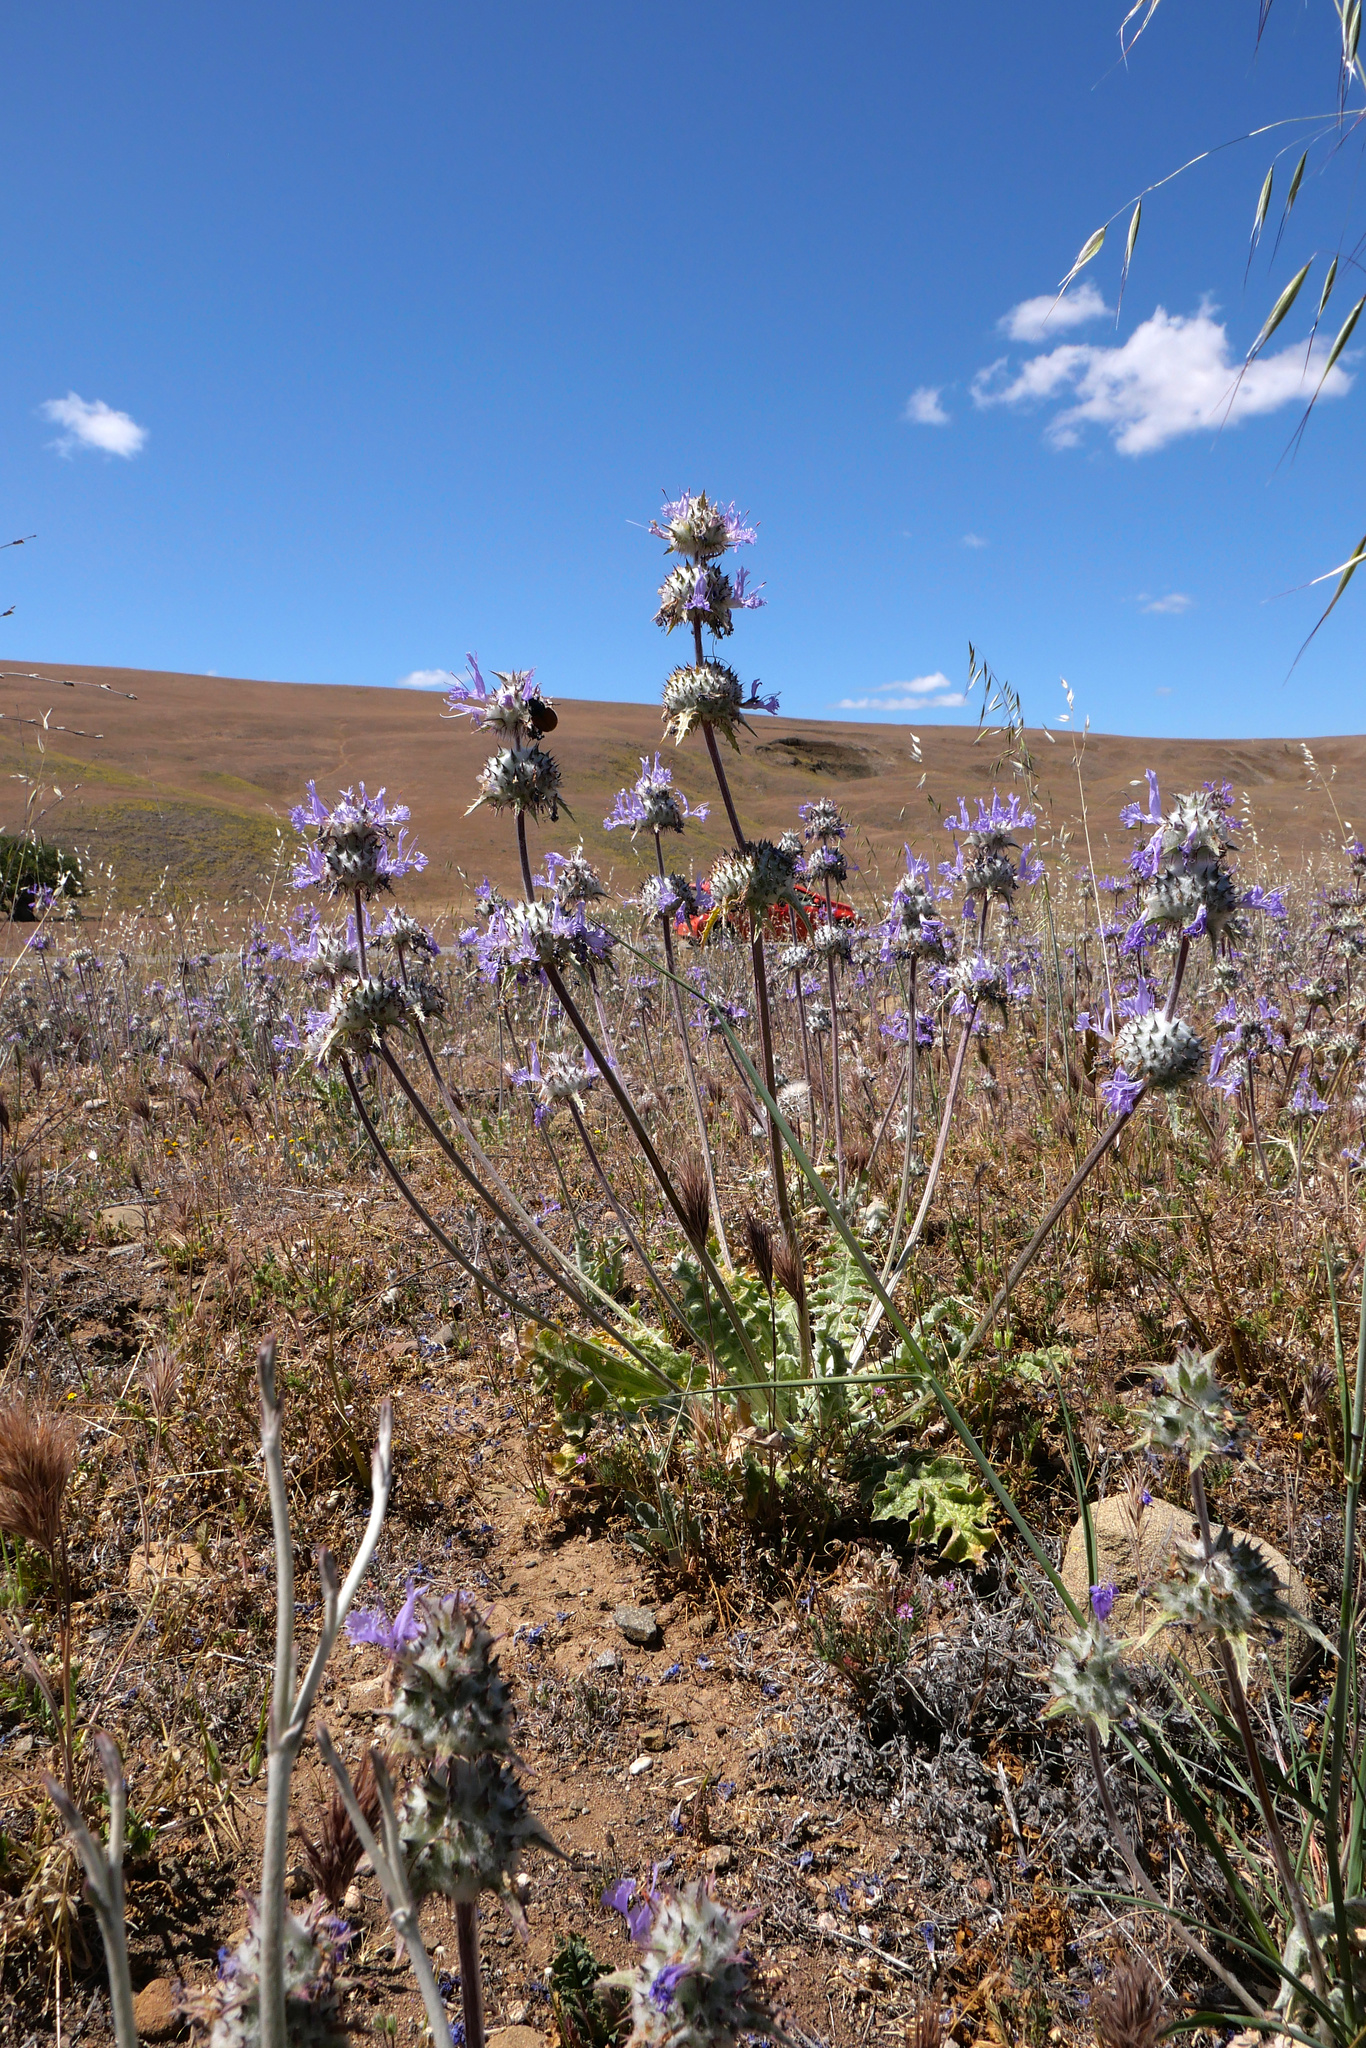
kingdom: Plantae
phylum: Tracheophyta
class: Magnoliopsida
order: Lamiales
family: Lamiaceae
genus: Salvia
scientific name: Salvia carduacea
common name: Thistle sage
